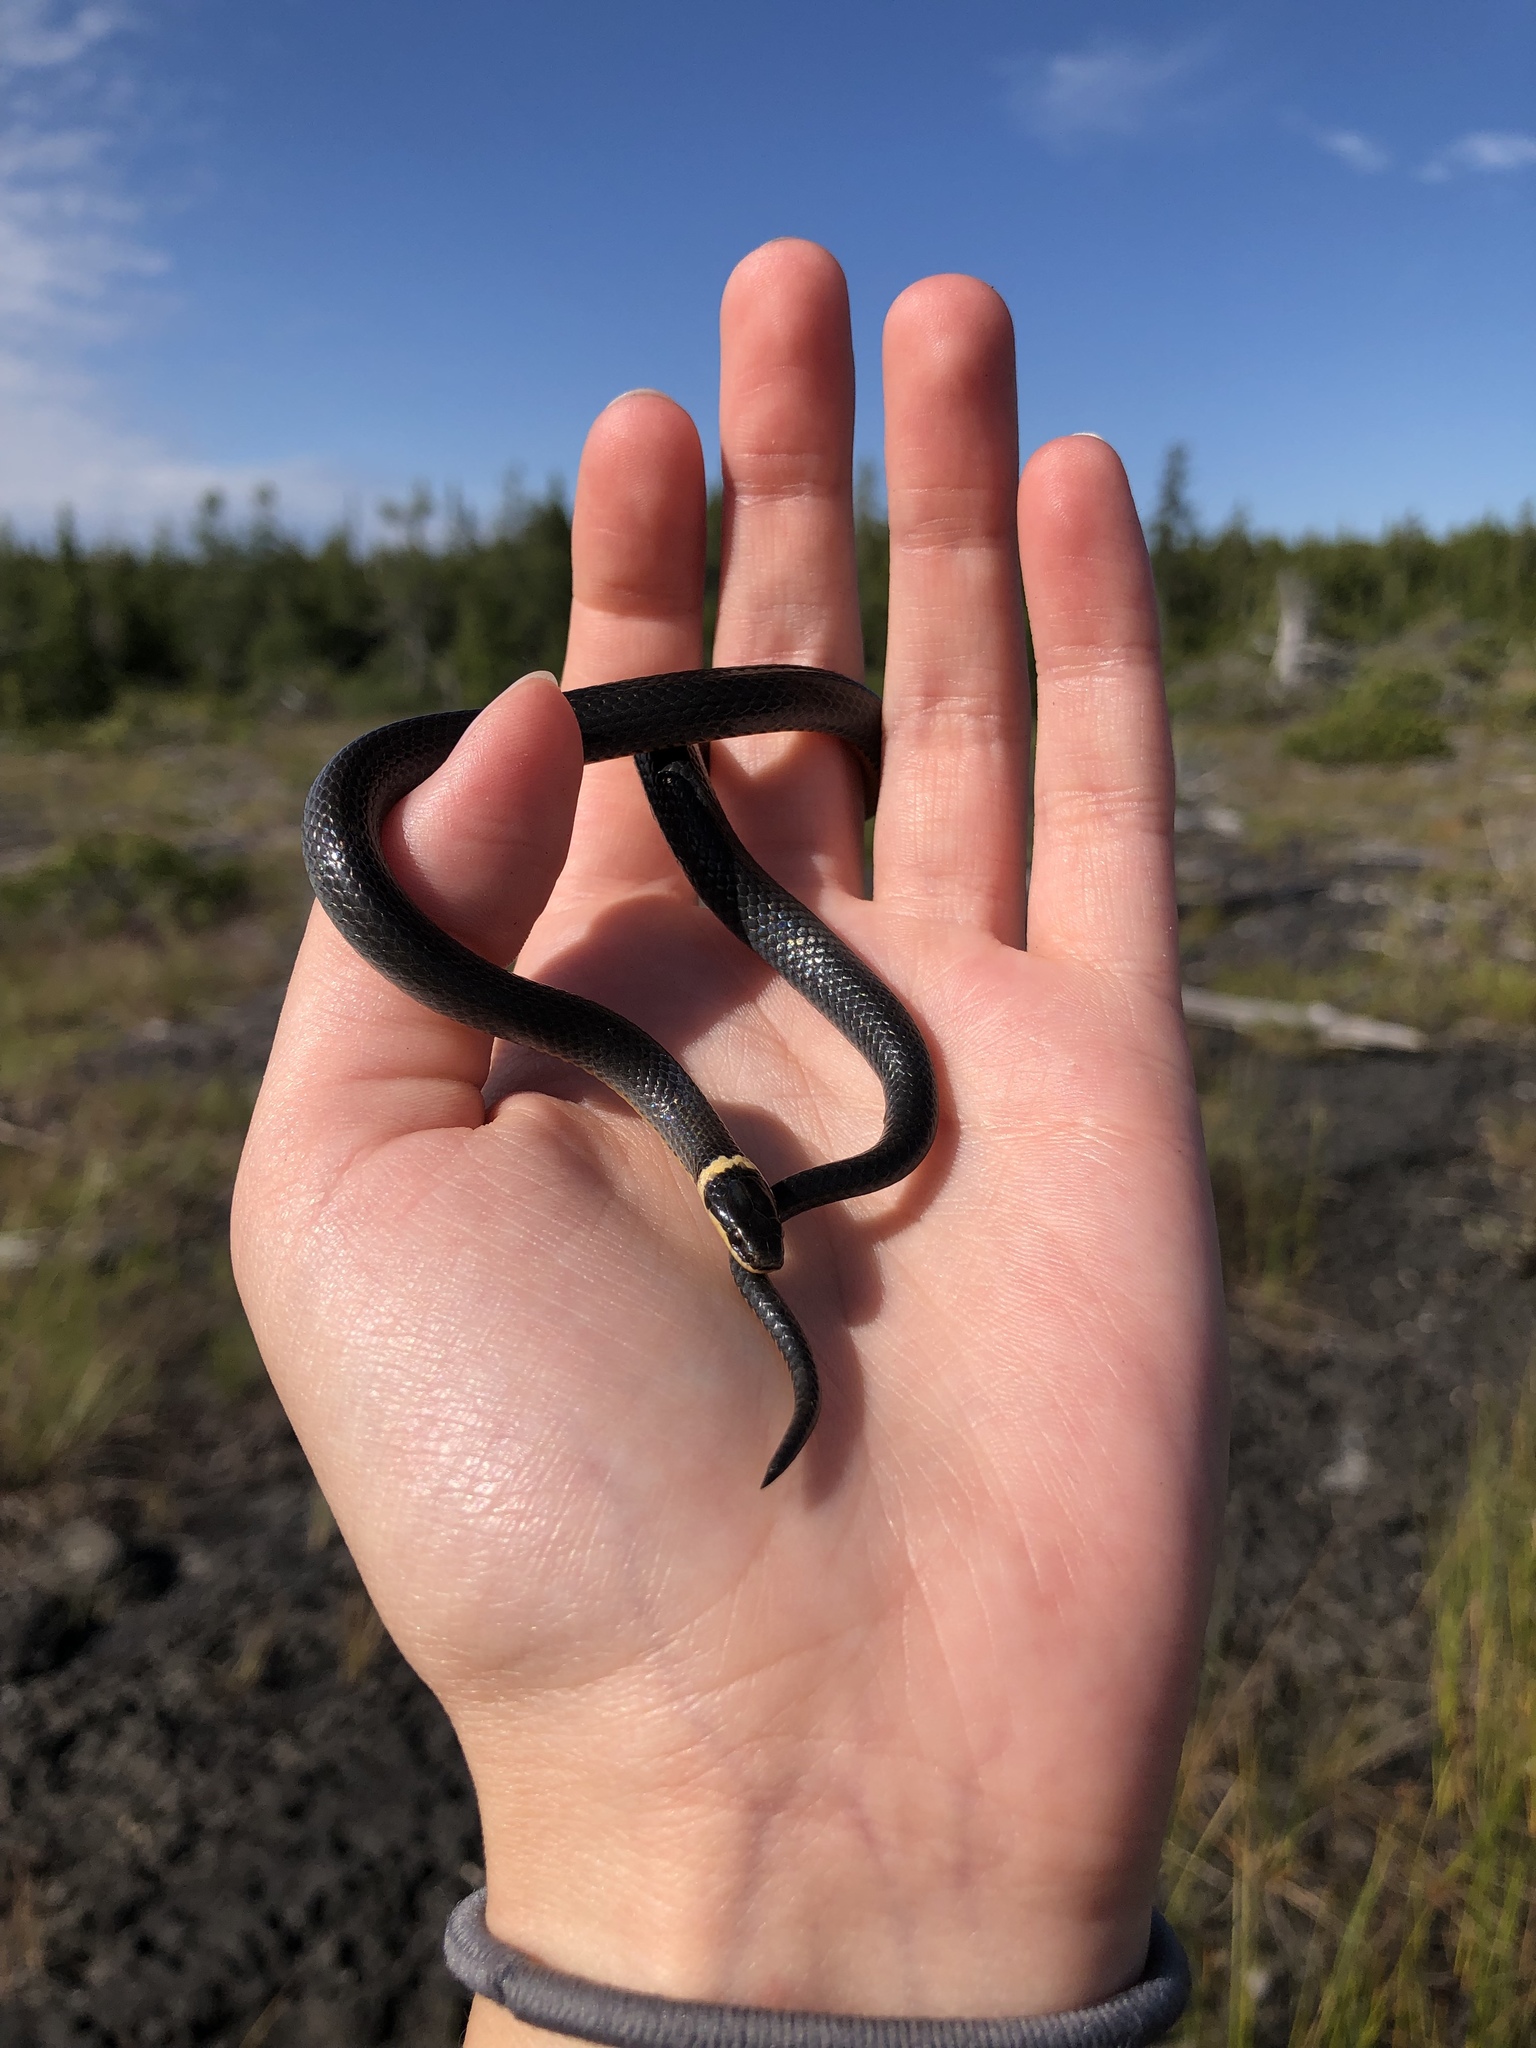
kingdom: Animalia
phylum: Chordata
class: Squamata
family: Colubridae
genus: Diadophis
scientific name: Diadophis punctatus
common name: Ringneck snake
